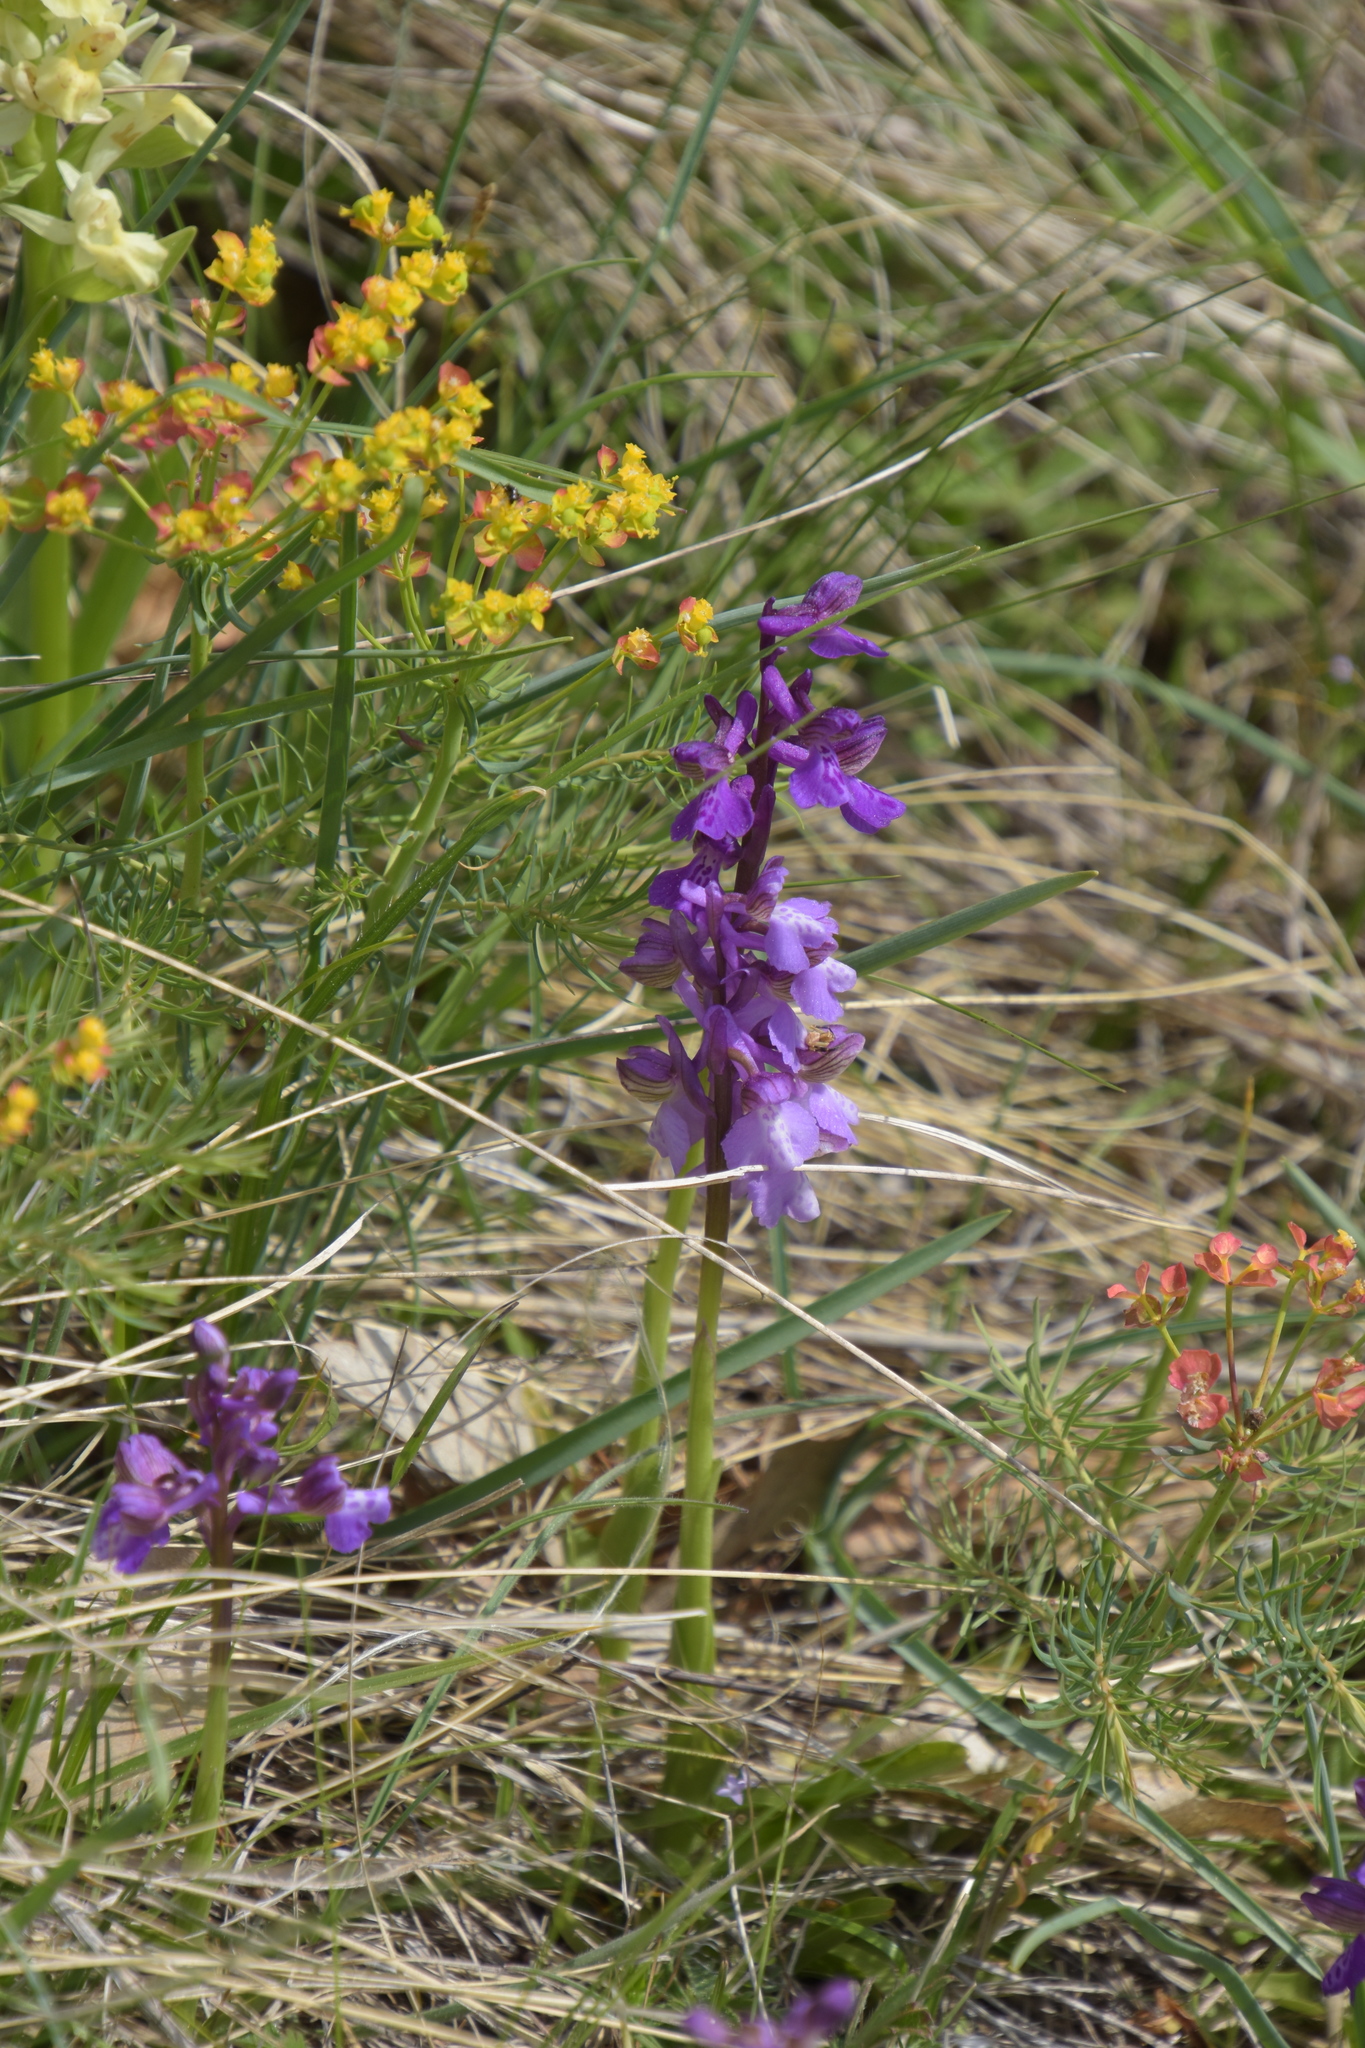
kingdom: Plantae
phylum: Tracheophyta
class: Liliopsida
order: Asparagales
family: Orchidaceae
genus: Anacamptis
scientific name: Anacamptis morio
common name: Green-winged orchid
